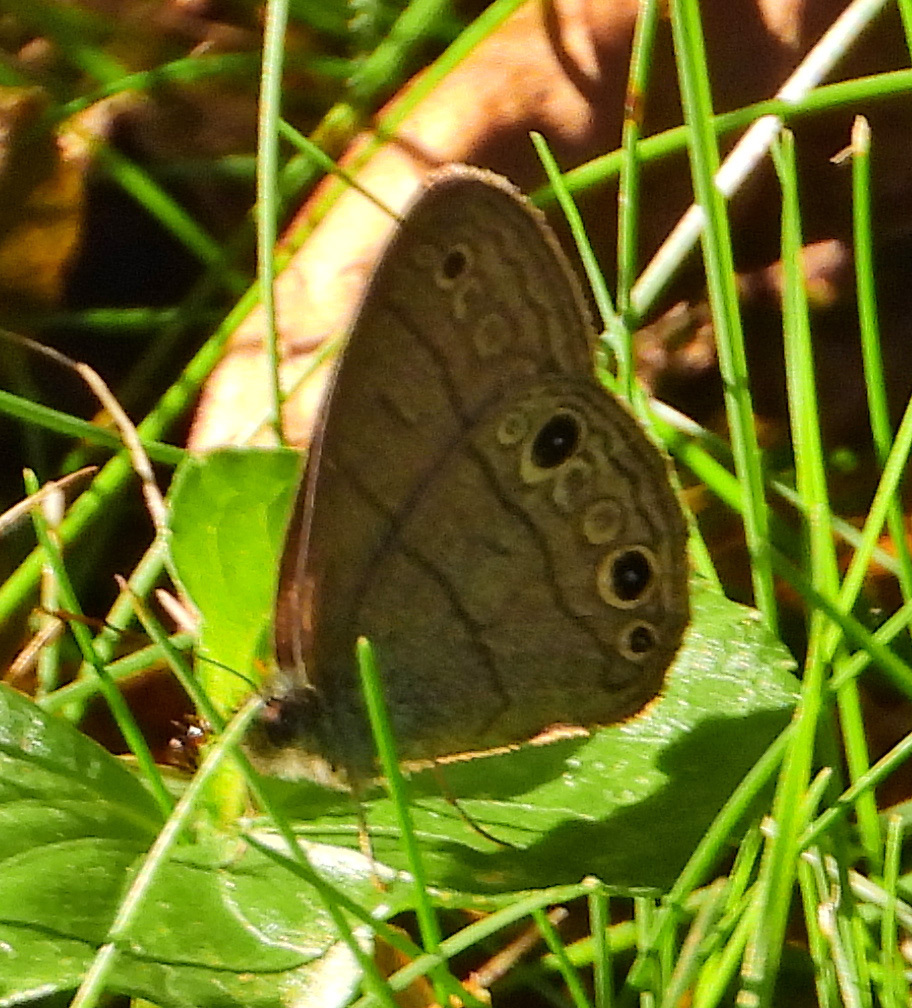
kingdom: Animalia
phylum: Arthropoda
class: Insecta
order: Lepidoptera
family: Nymphalidae
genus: Hermeuptychia
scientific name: Hermeuptychia hermes
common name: Hermes satyr
